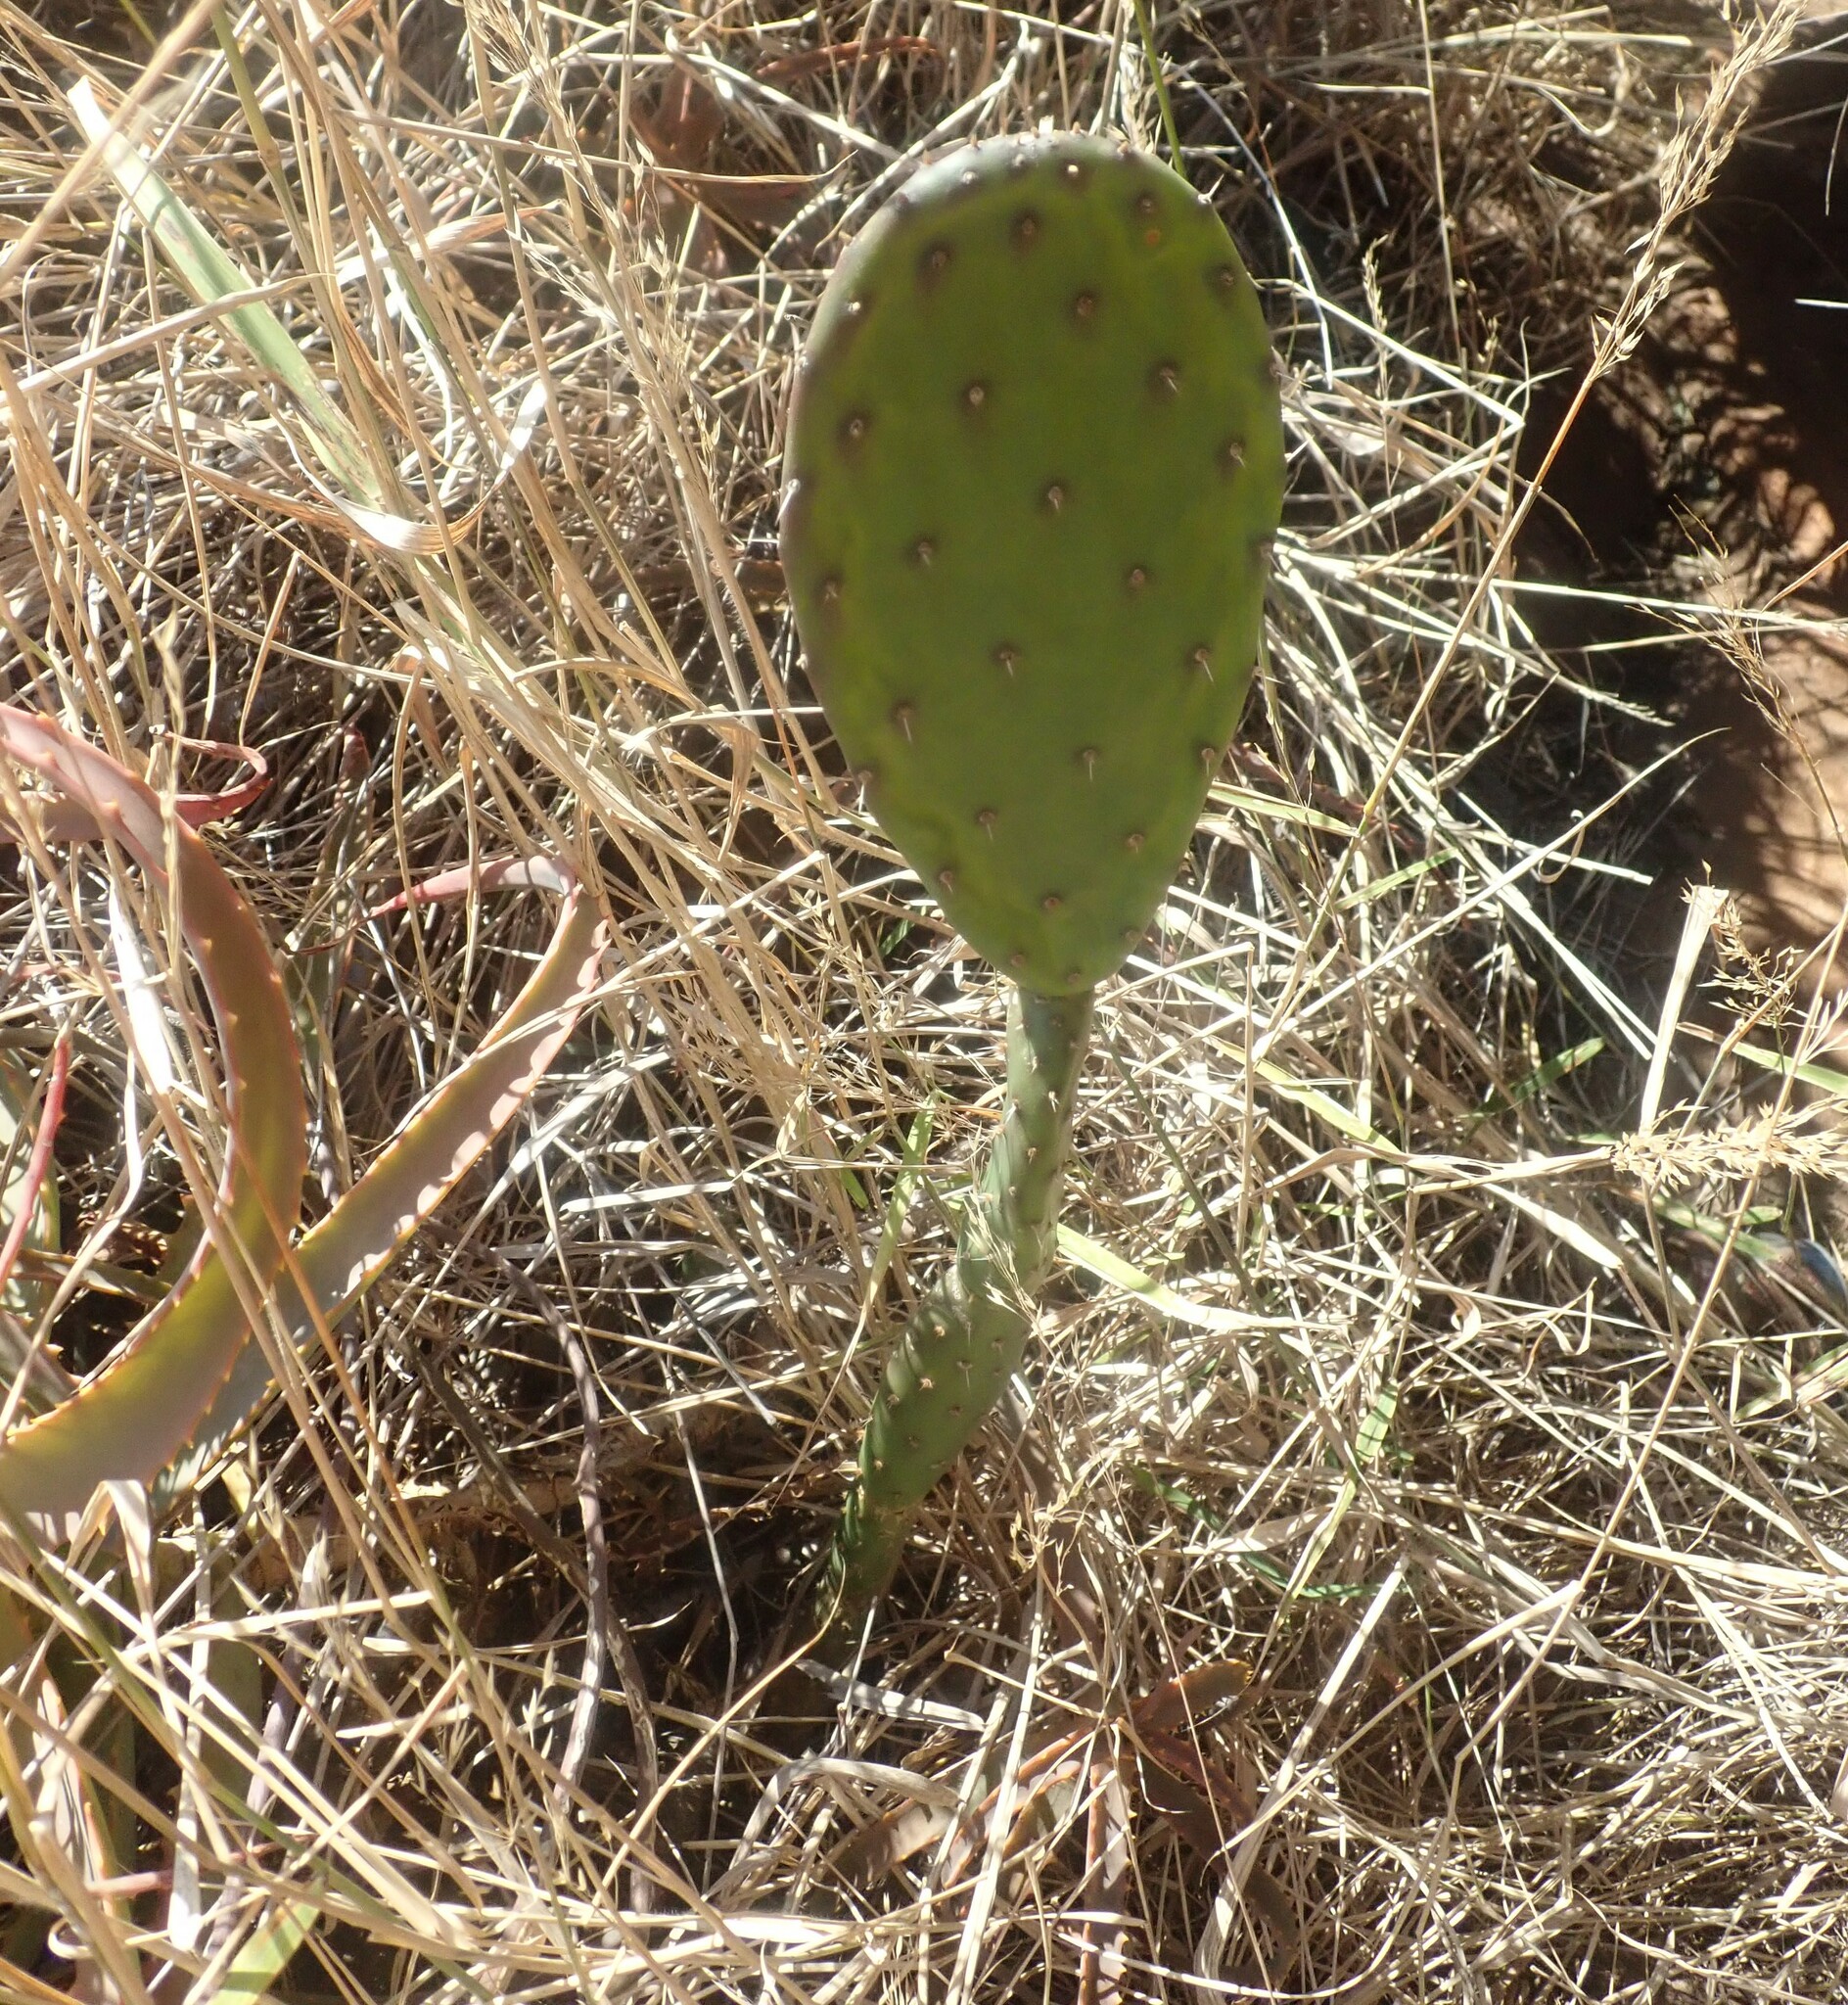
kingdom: Plantae
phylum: Tracheophyta
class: Magnoliopsida
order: Caryophyllales
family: Cactaceae
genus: Opuntia
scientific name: Opuntia ficus-indica
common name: Barbary fig
